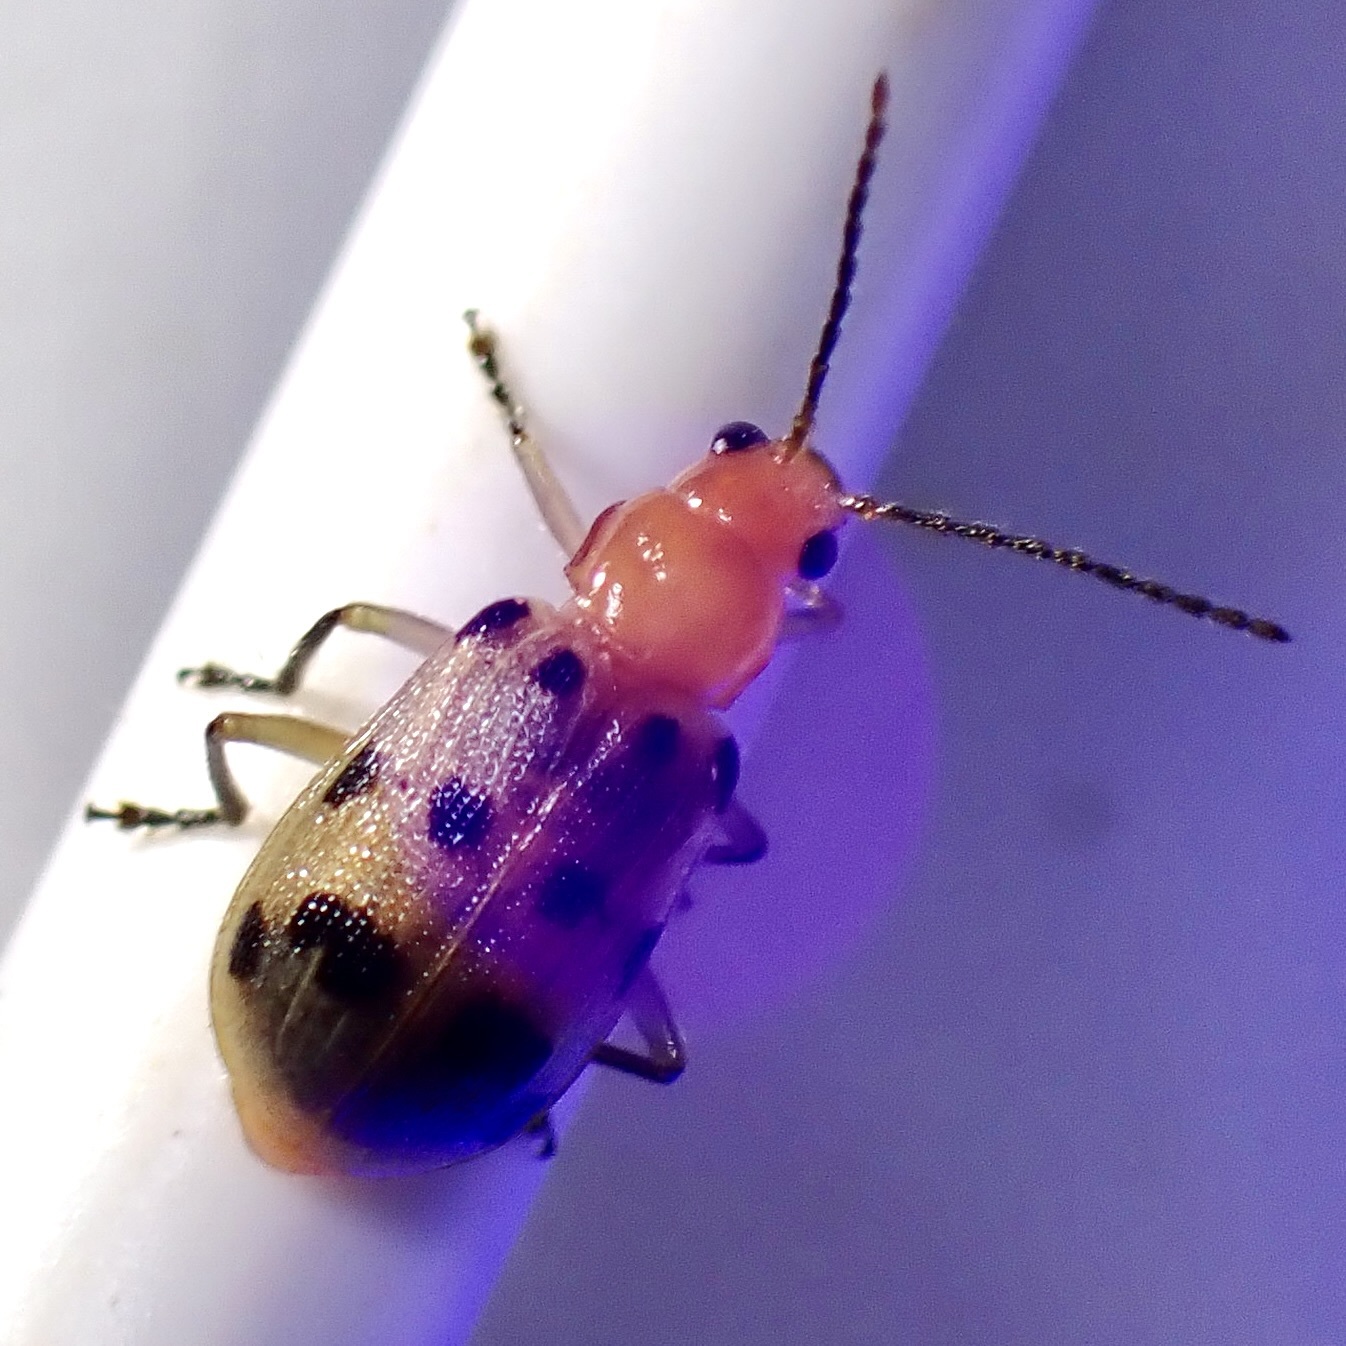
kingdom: Animalia
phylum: Arthropoda
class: Insecta
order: Coleoptera
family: Chrysomelidae
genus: Neobrotica
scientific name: Neobrotica pluristica
